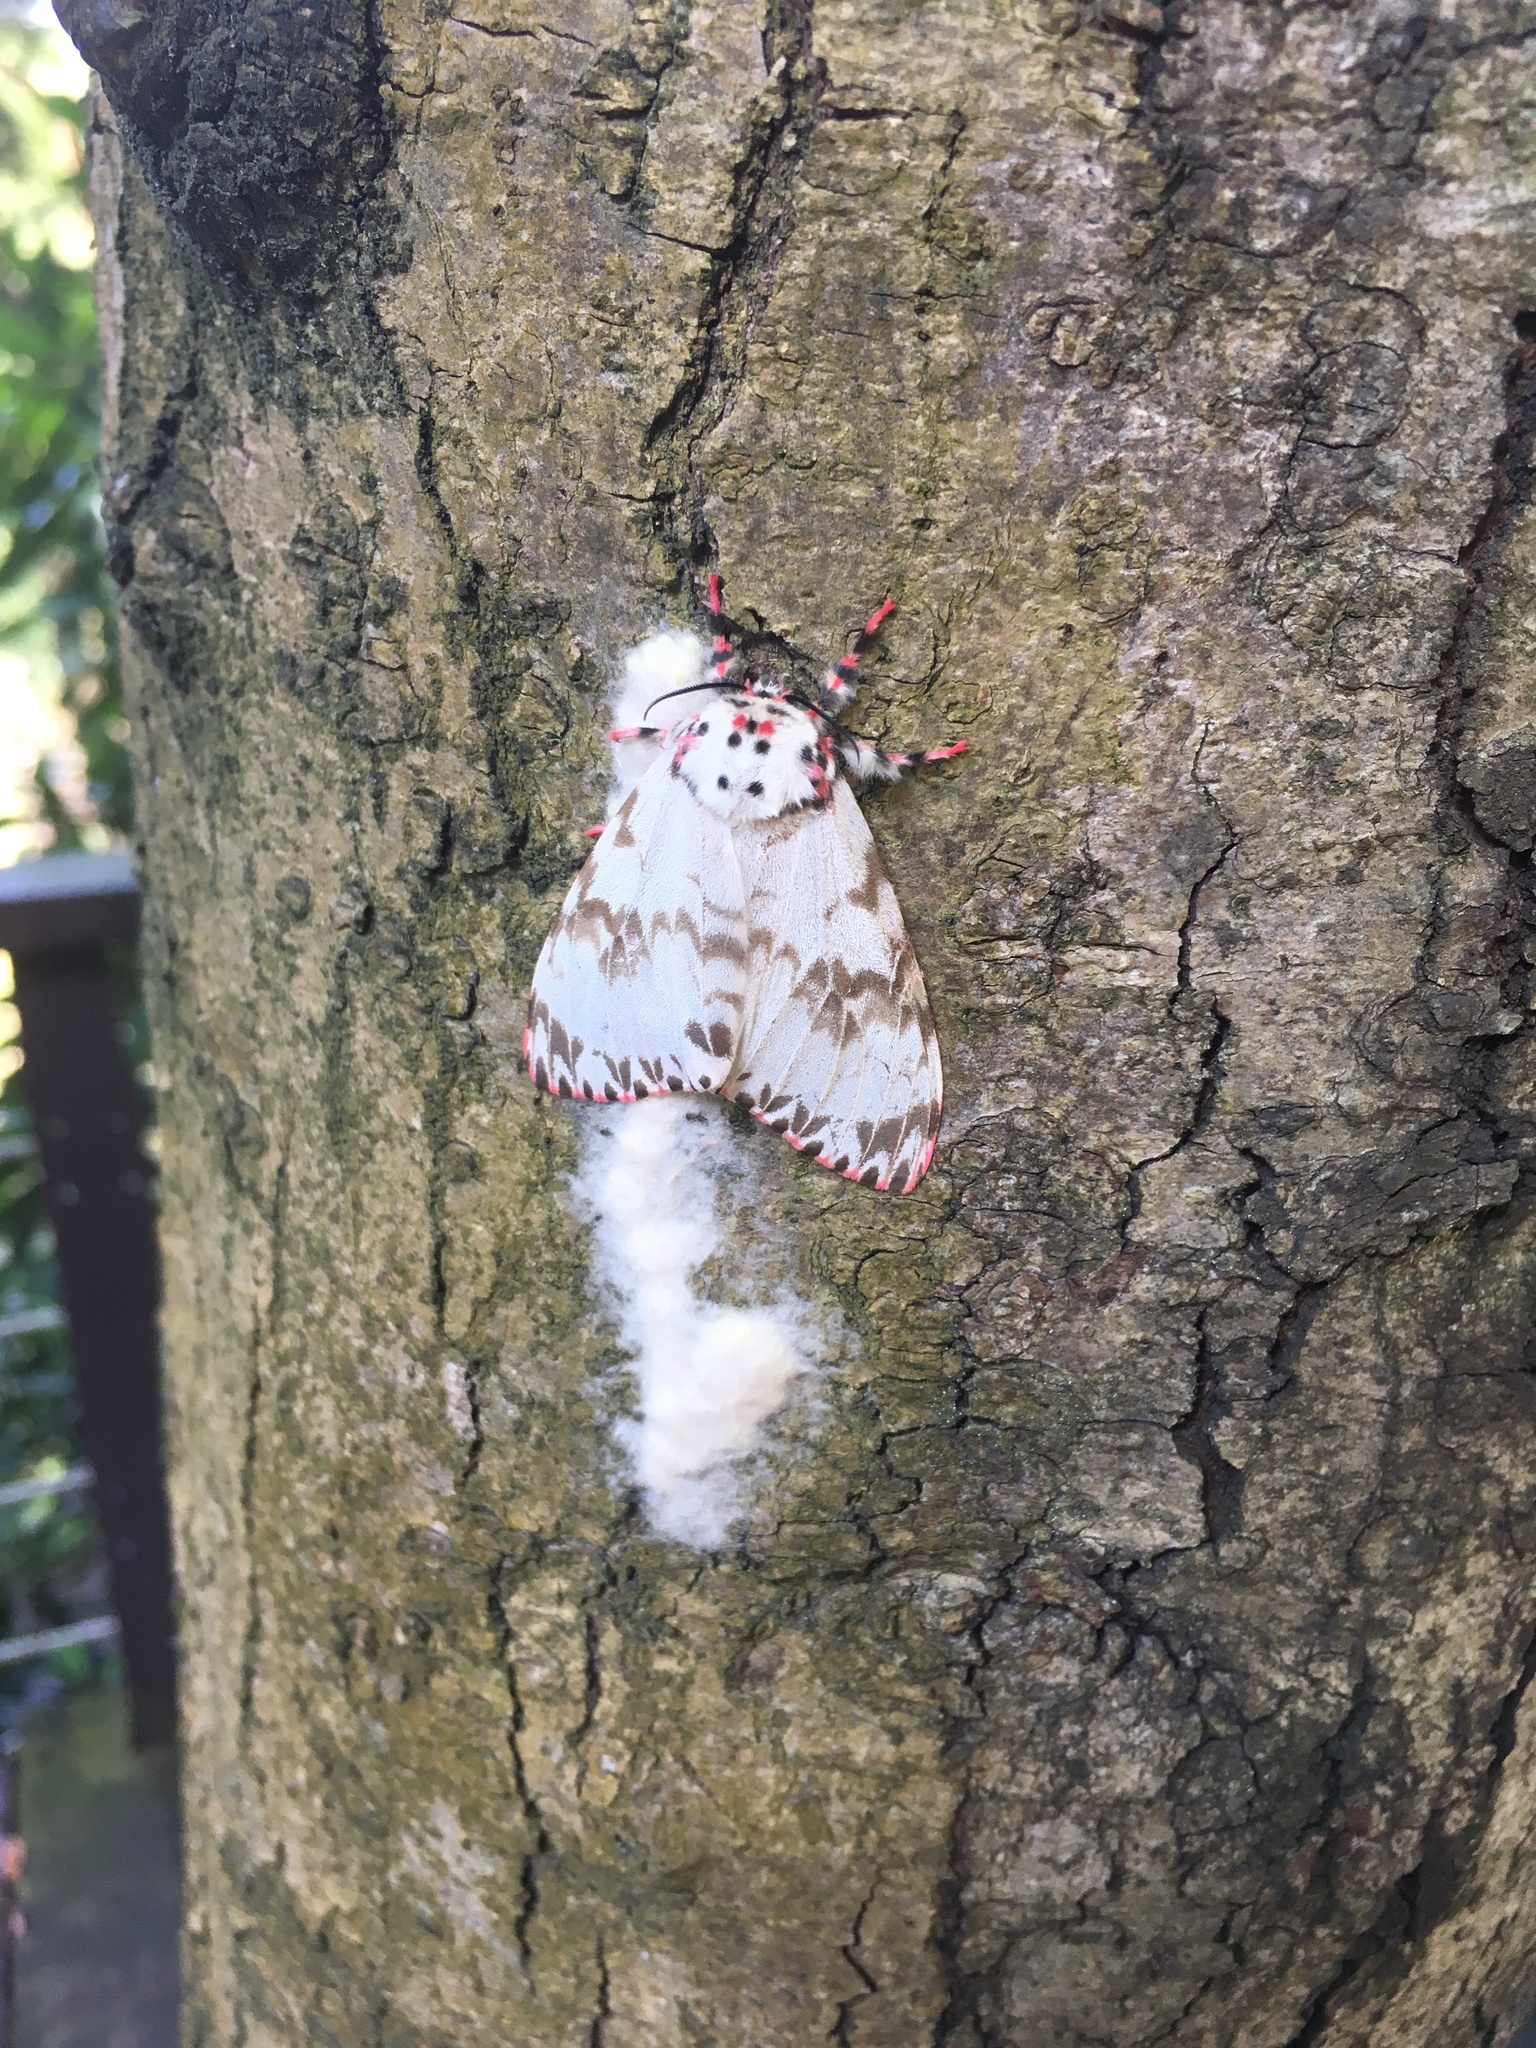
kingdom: Animalia
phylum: Arthropoda
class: Insecta
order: Lepidoptera
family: Erebidae
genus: Lymantria
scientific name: Lymantria mathura
